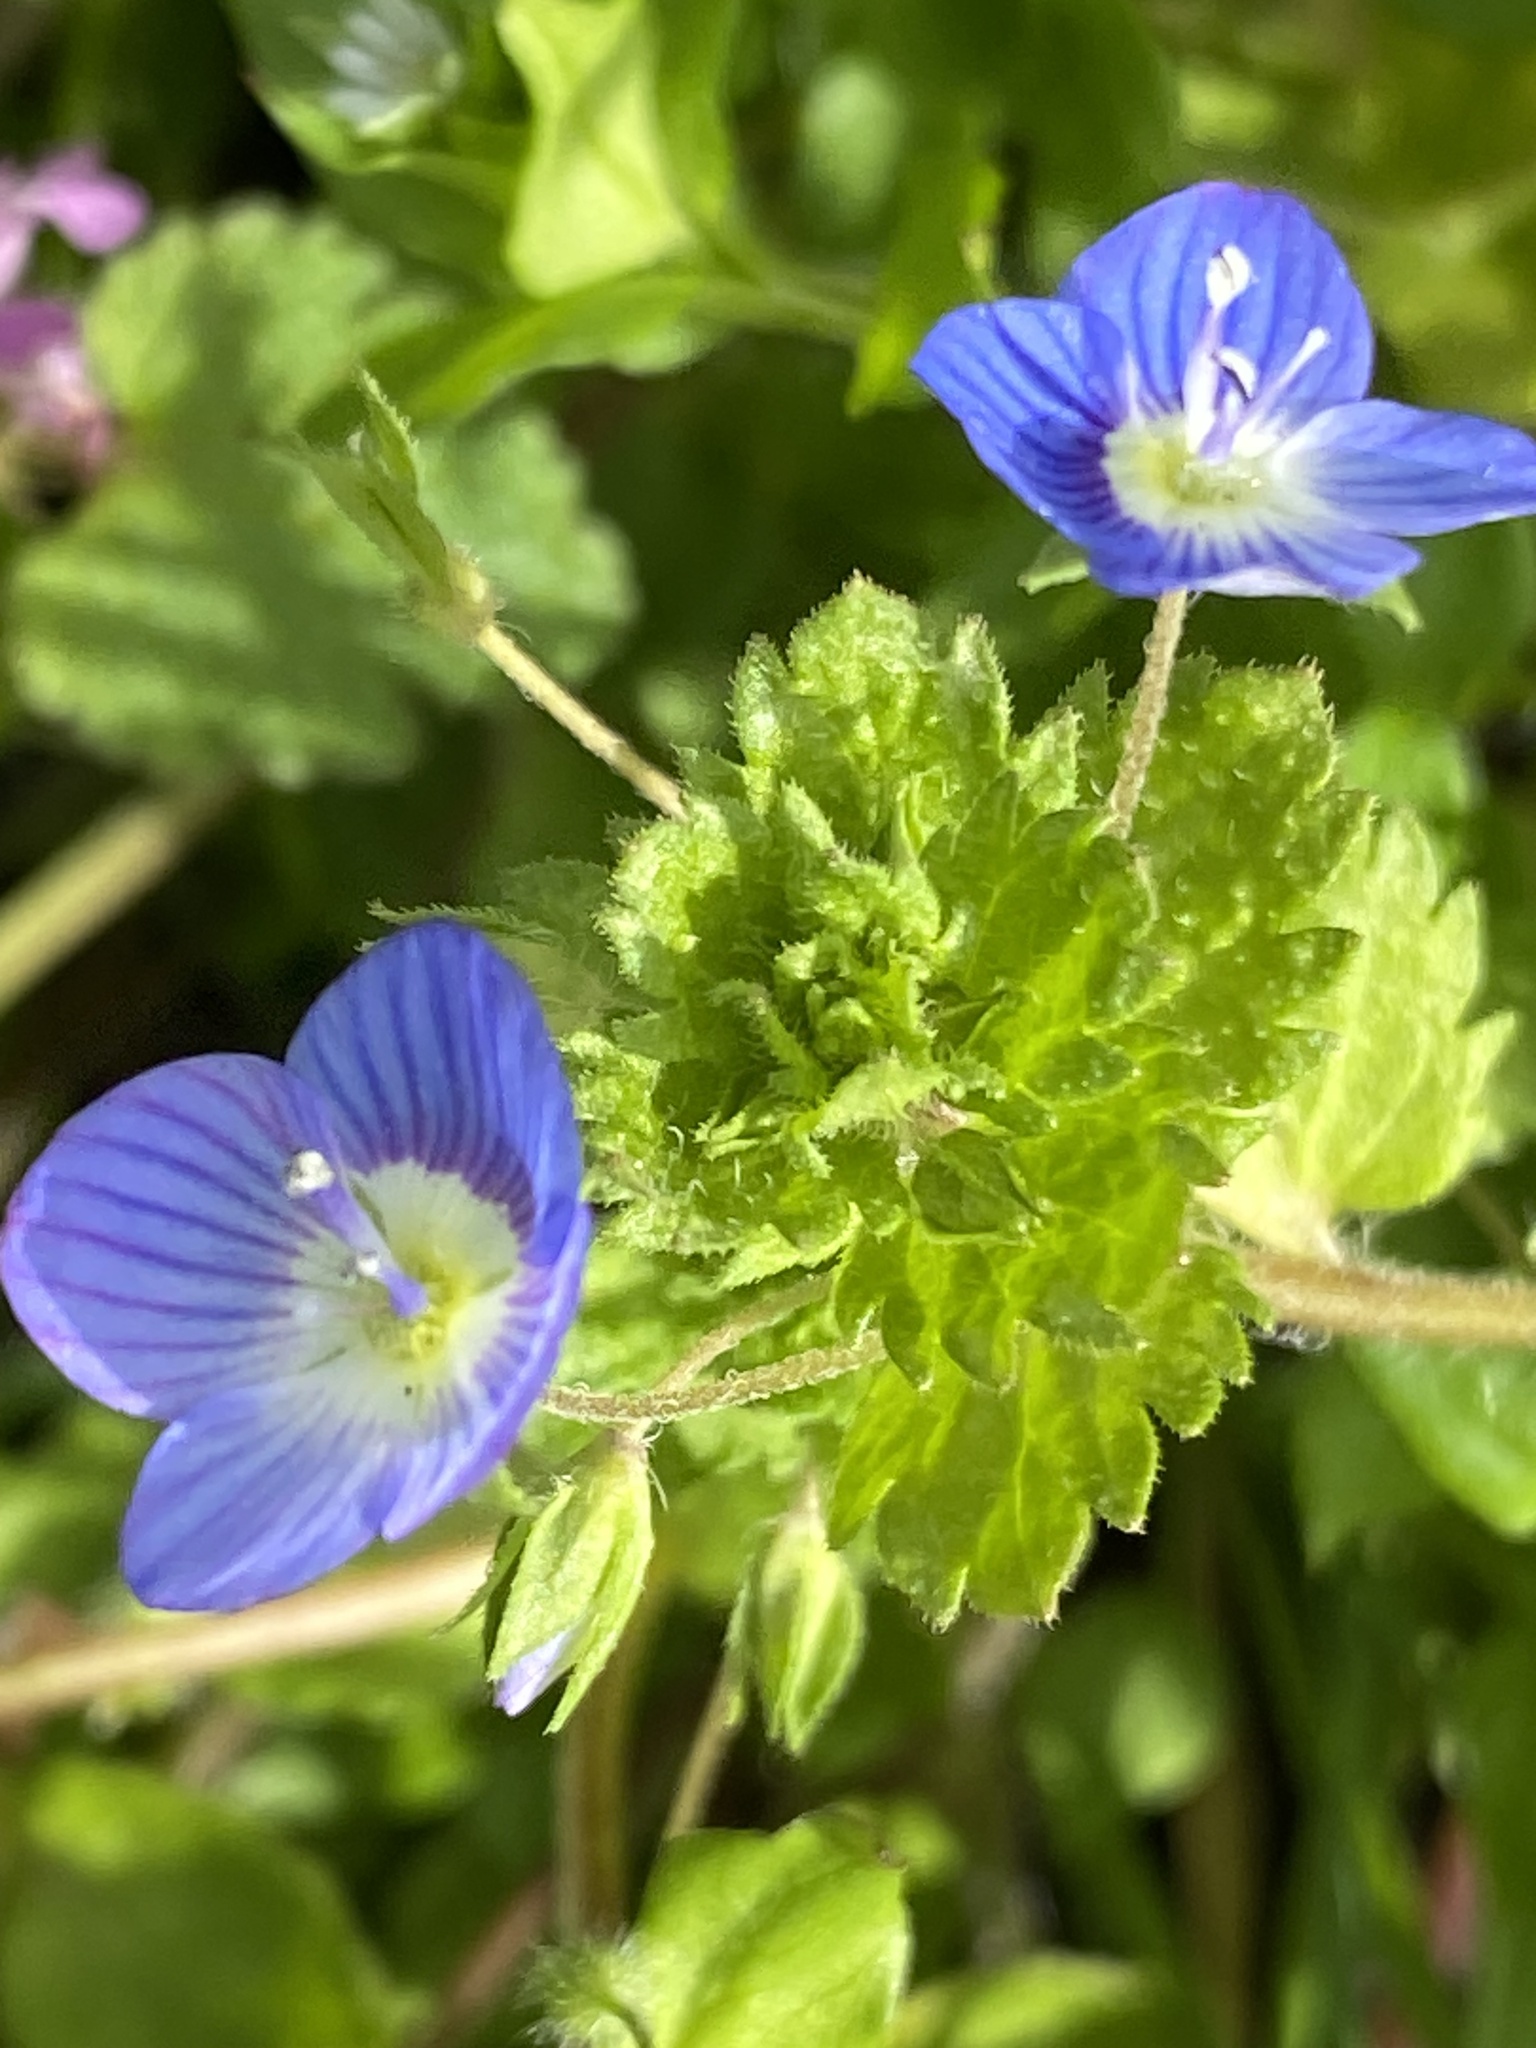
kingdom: Plantae
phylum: Tracheophyta
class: Magnoliopsida
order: Lamiales
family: Plantaginaceae
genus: Veronica
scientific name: Veronica persica
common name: Common field-speedwell
